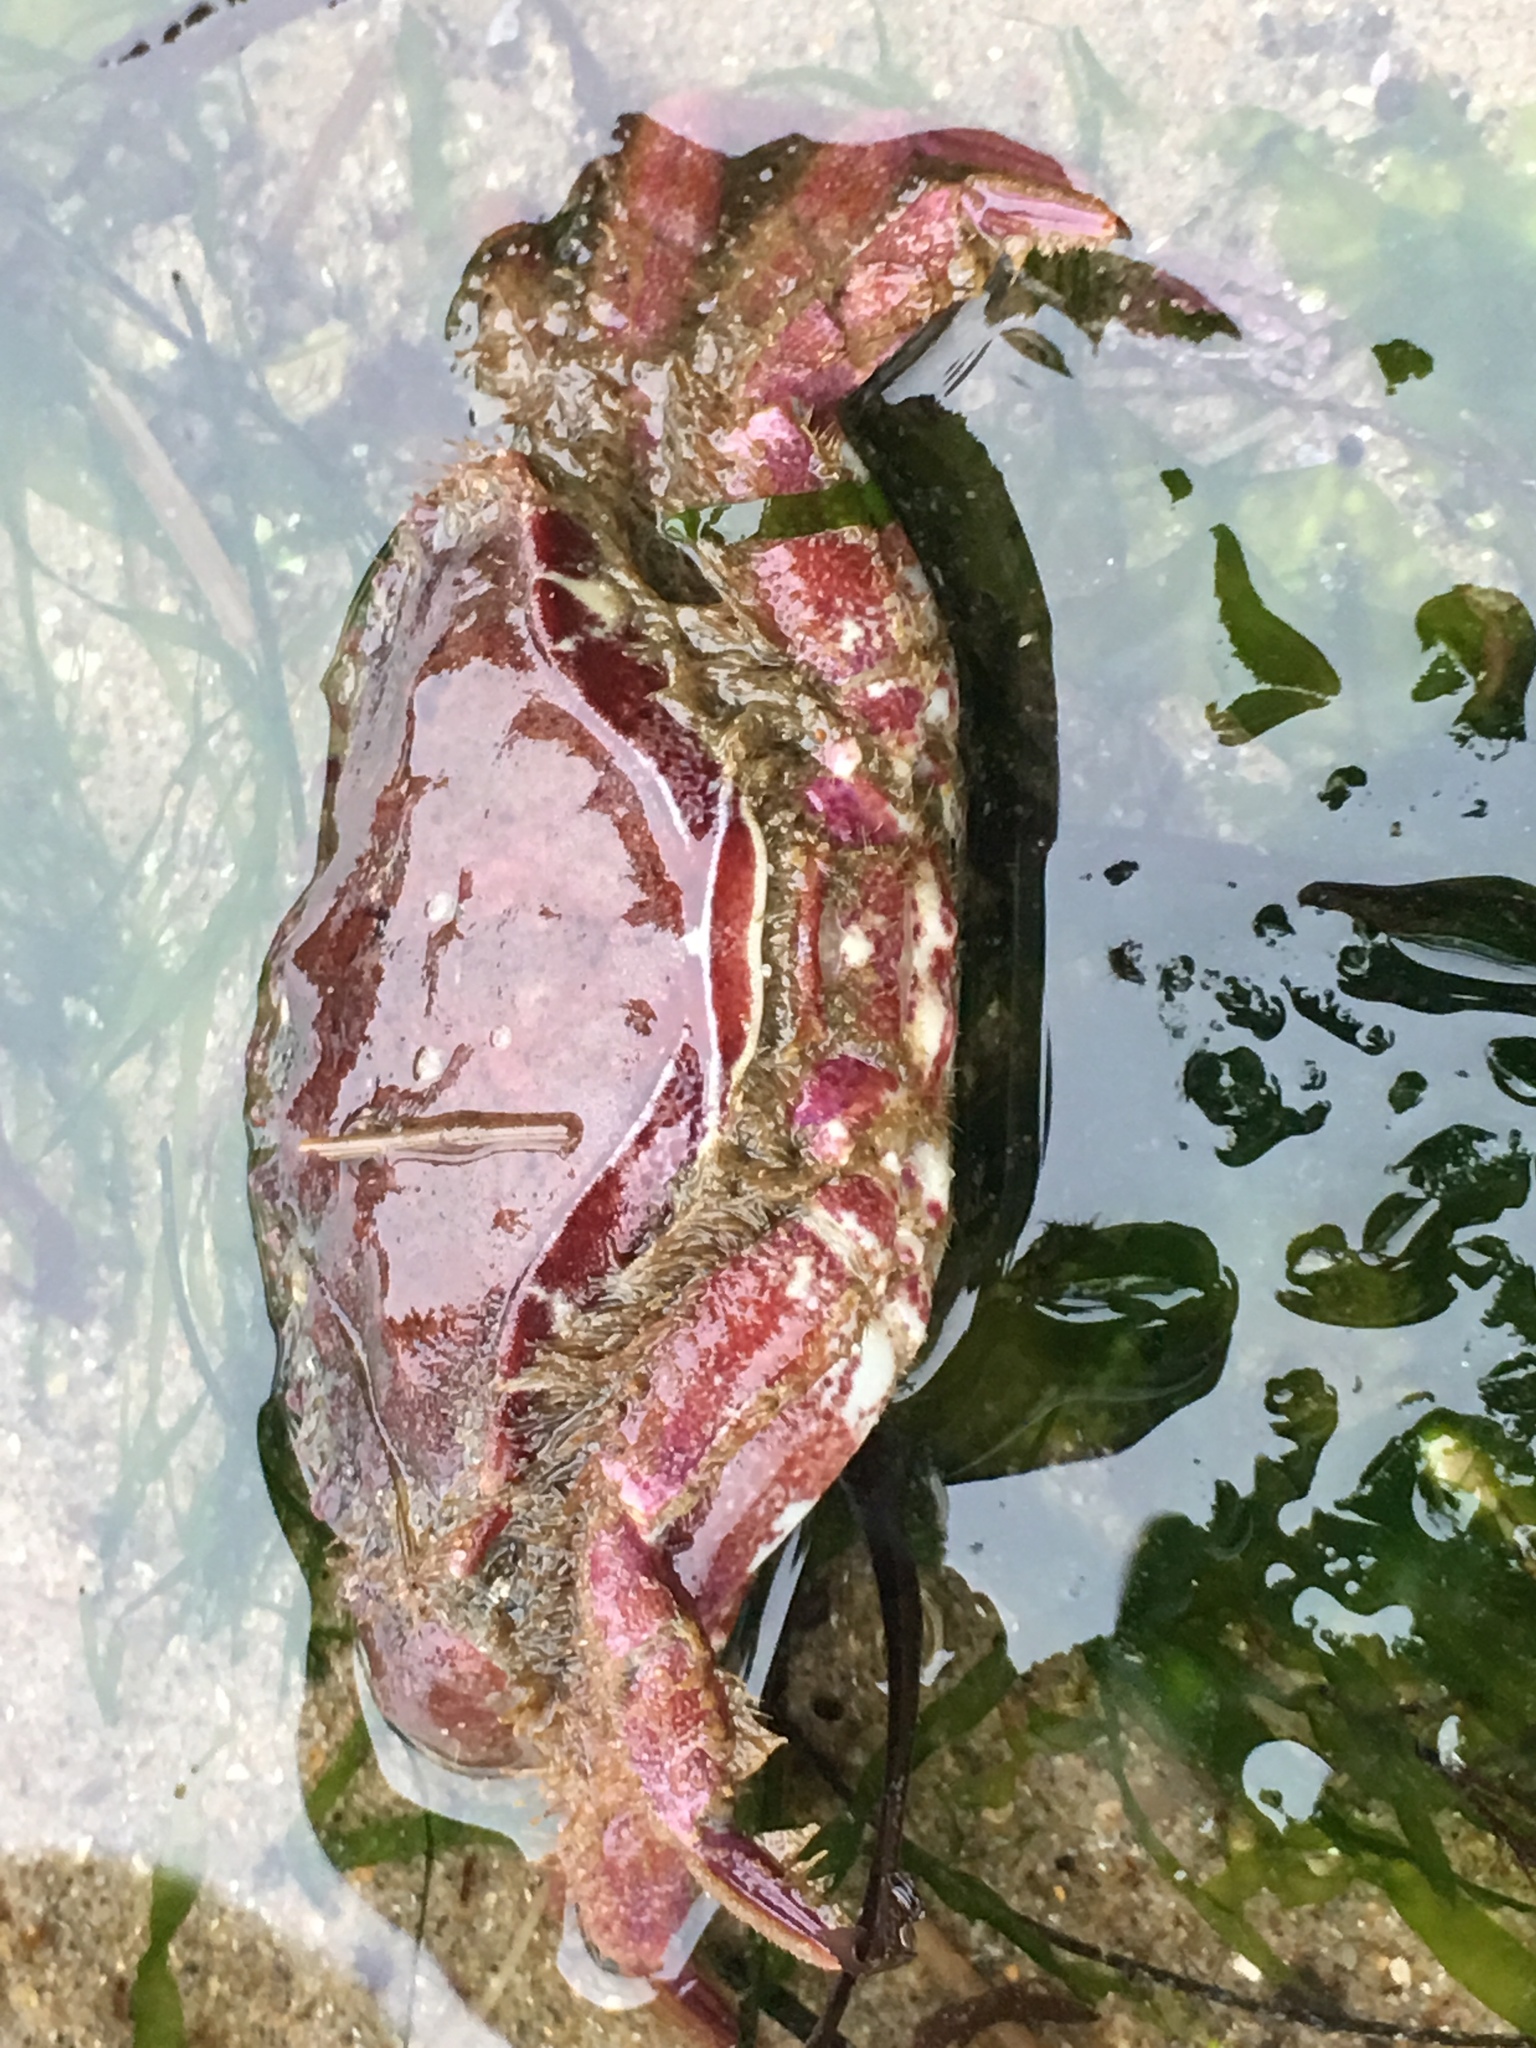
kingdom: Animalia
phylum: Arthropoda
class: Malacostraca
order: Decapoda
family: Cancridae
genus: Romaleon
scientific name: Romaleon antennarium
